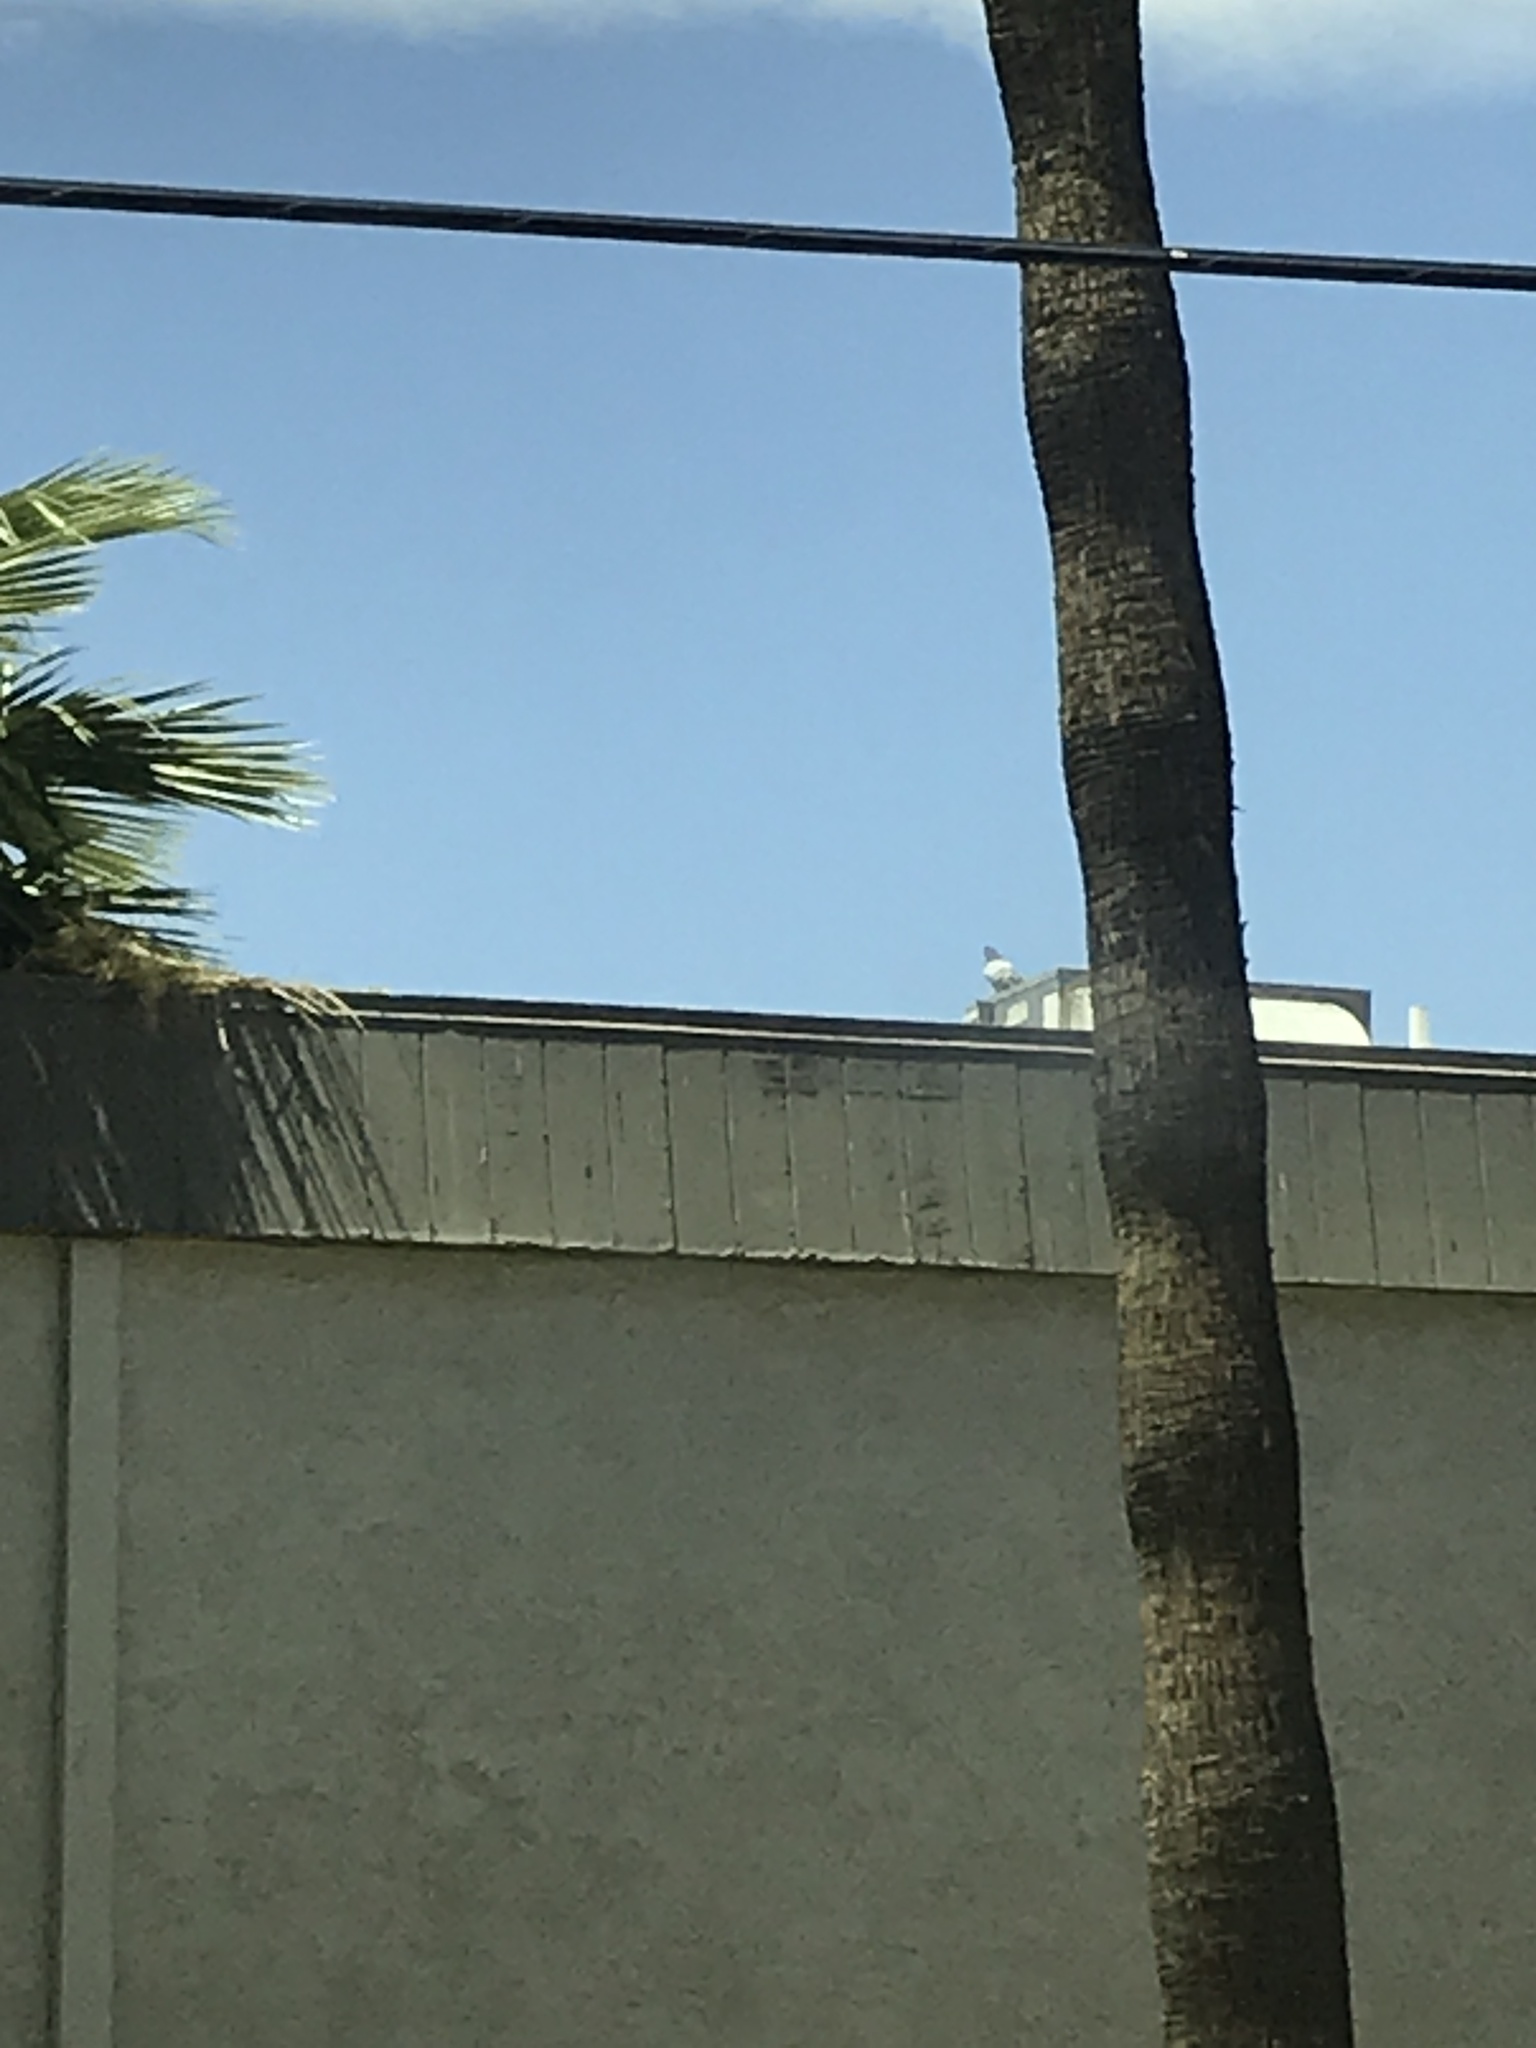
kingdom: Animalia
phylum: Chordata
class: Aves
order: Columbiformes
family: Columbidae
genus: Columba
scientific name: Columba livia
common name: Rock pigeon
